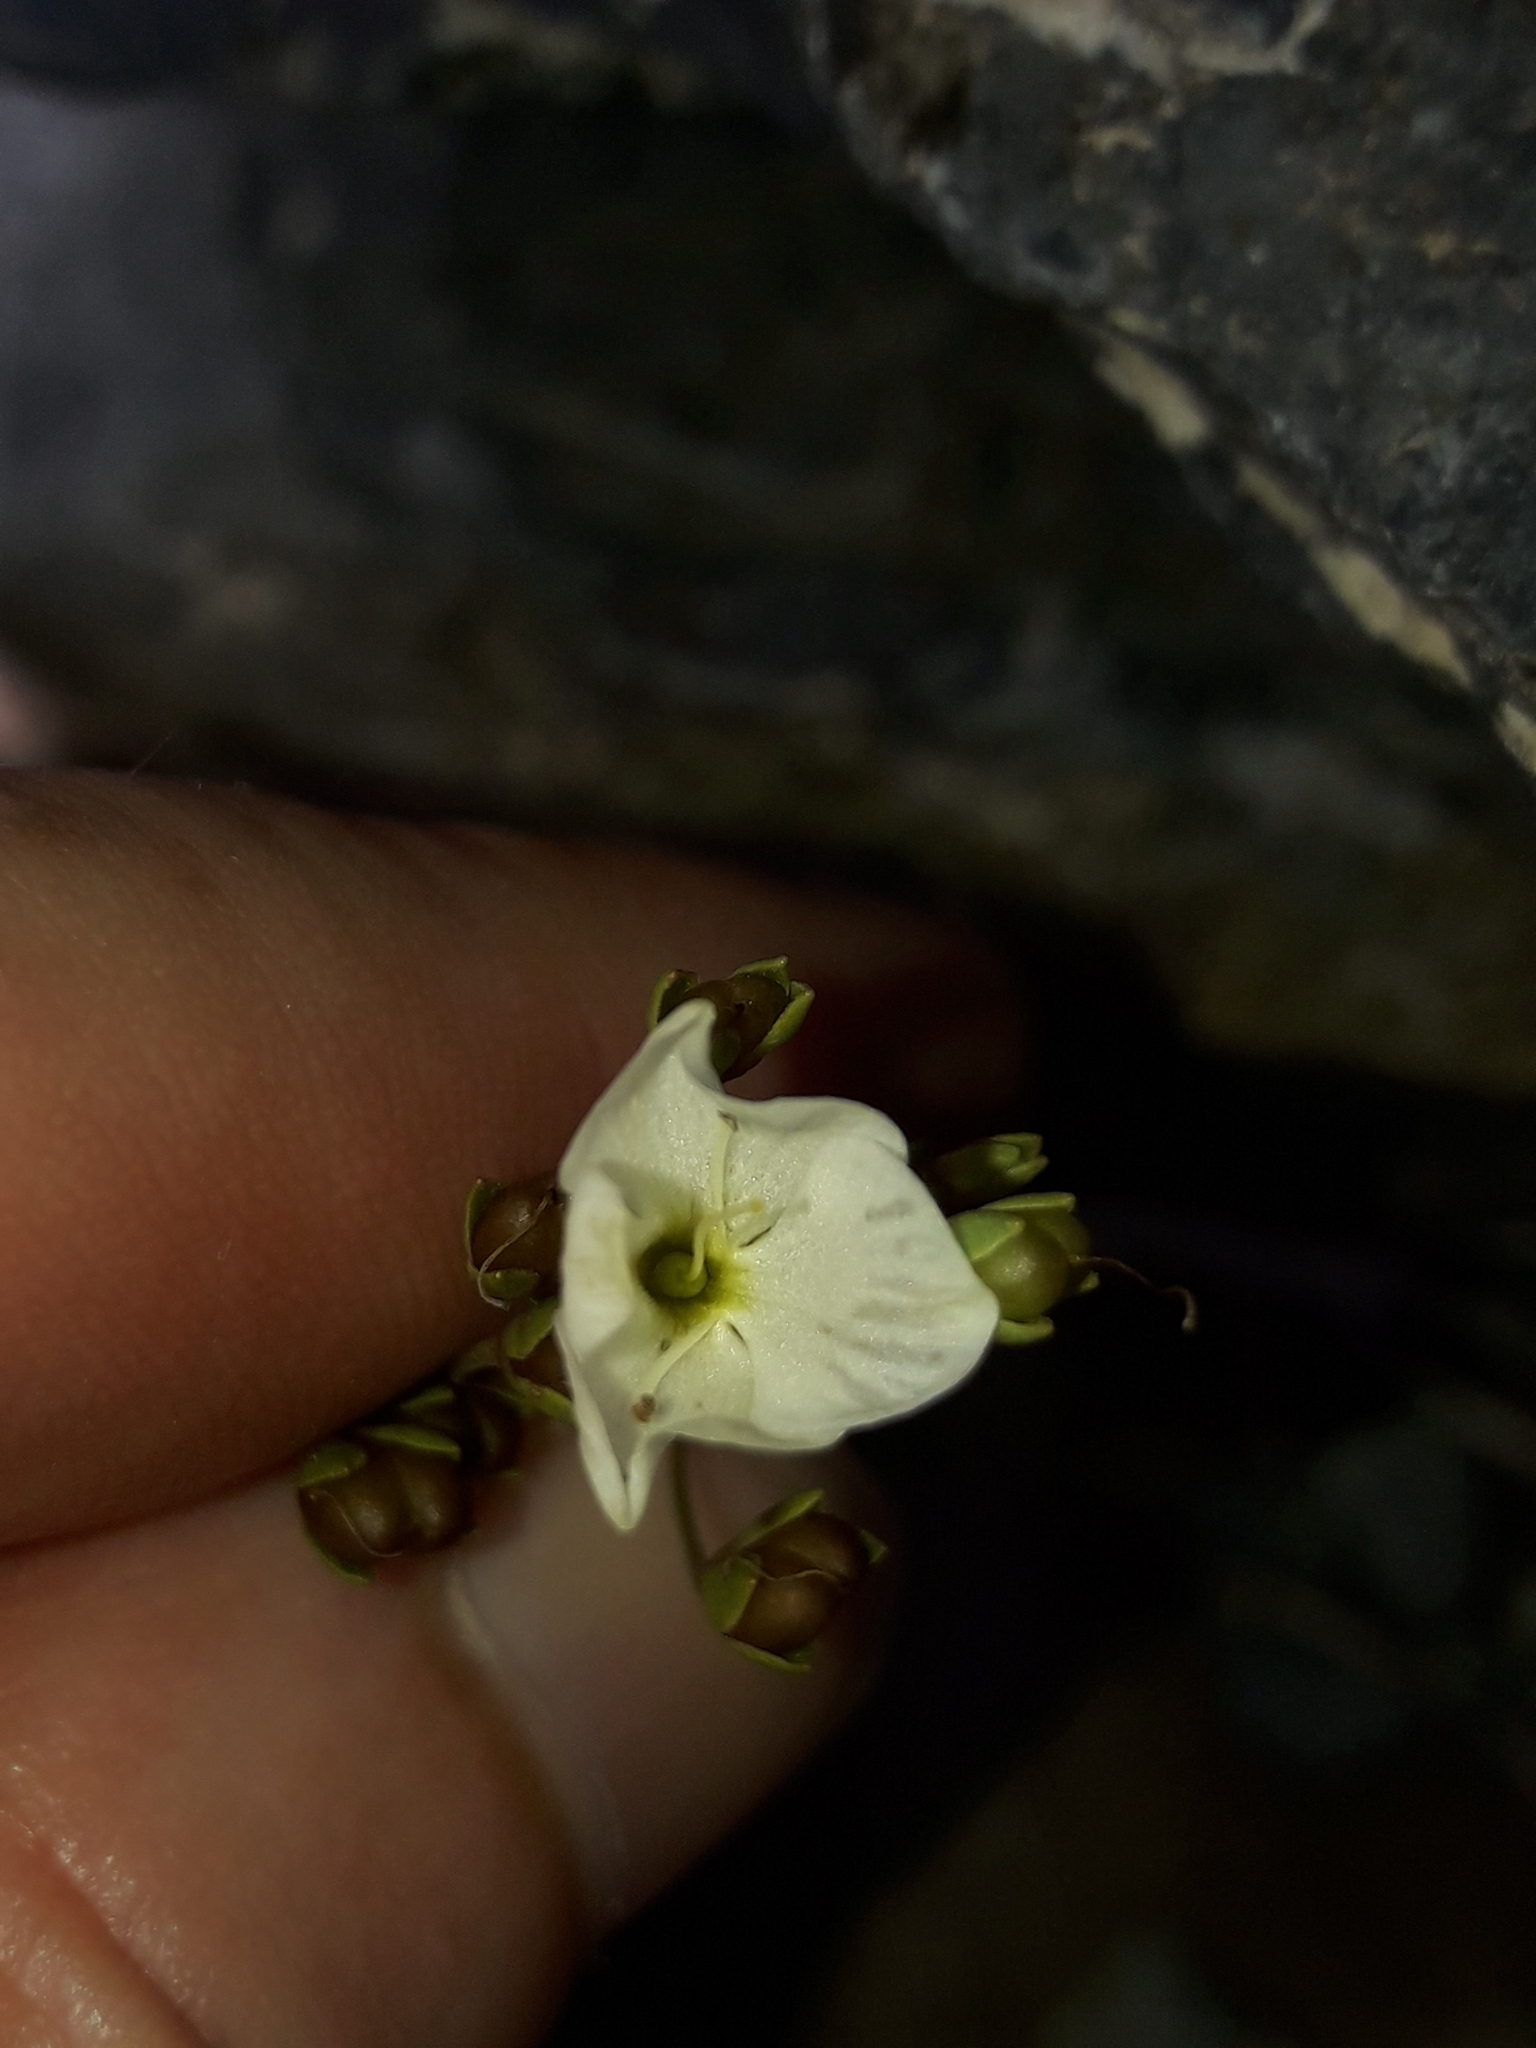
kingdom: Plantae
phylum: Tracheophyta
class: Magnoliopsida
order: Lamiales
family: Plantaginaceae
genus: Veronica
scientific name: Veronica lyallii
